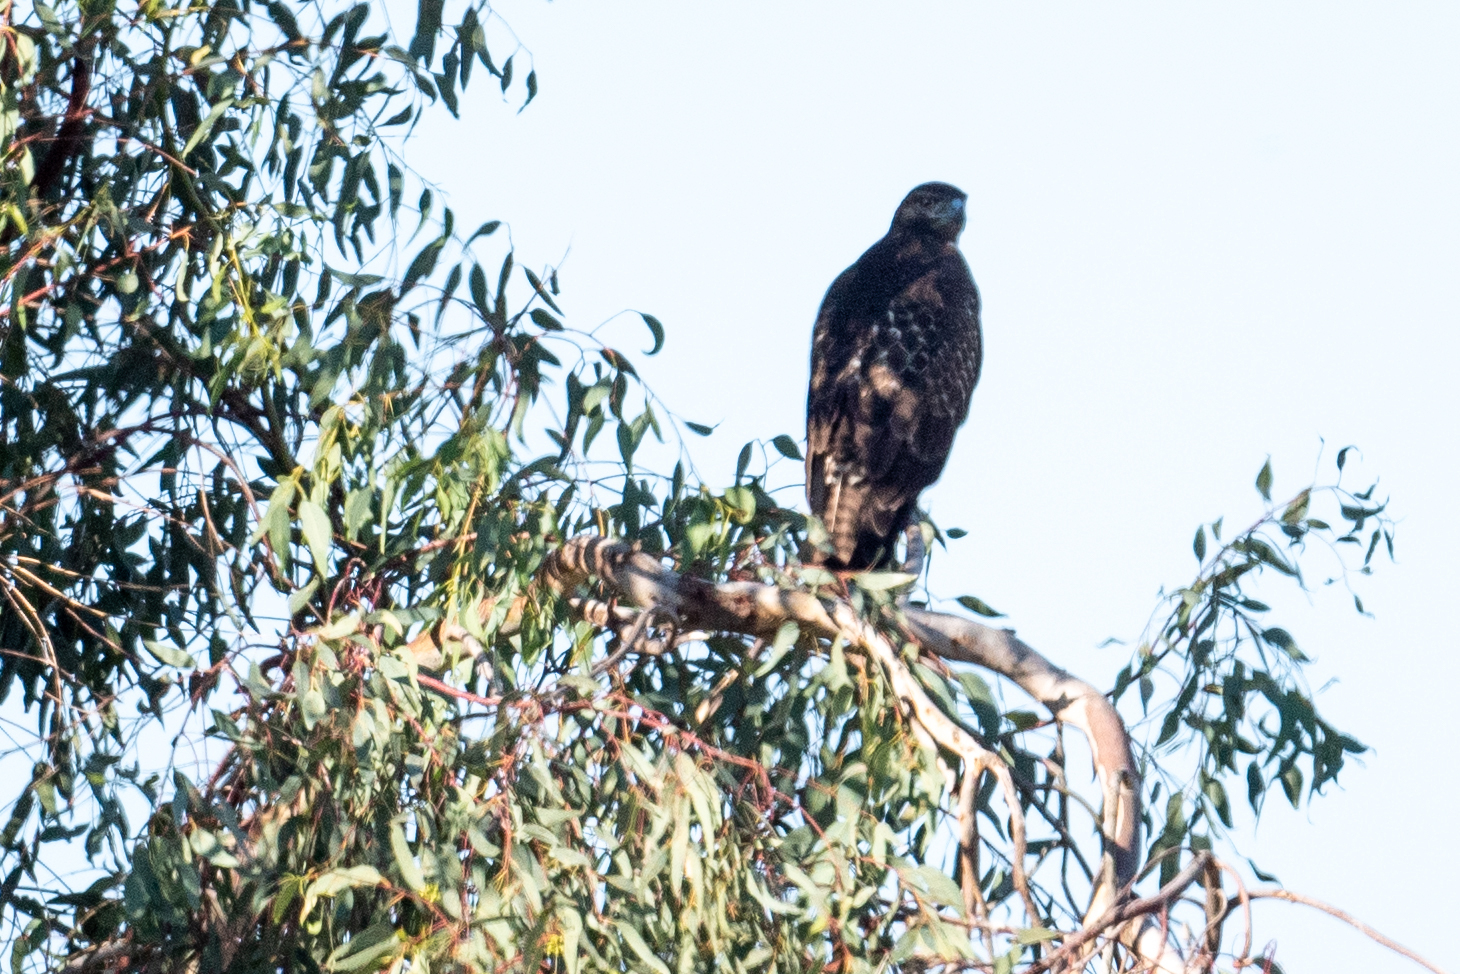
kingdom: Animalia
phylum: Chordata
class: Aves
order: Accipitriformes
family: Accipitridae
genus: Buteo
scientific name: Buteo jamaicensis
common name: Red-tailed hawk
